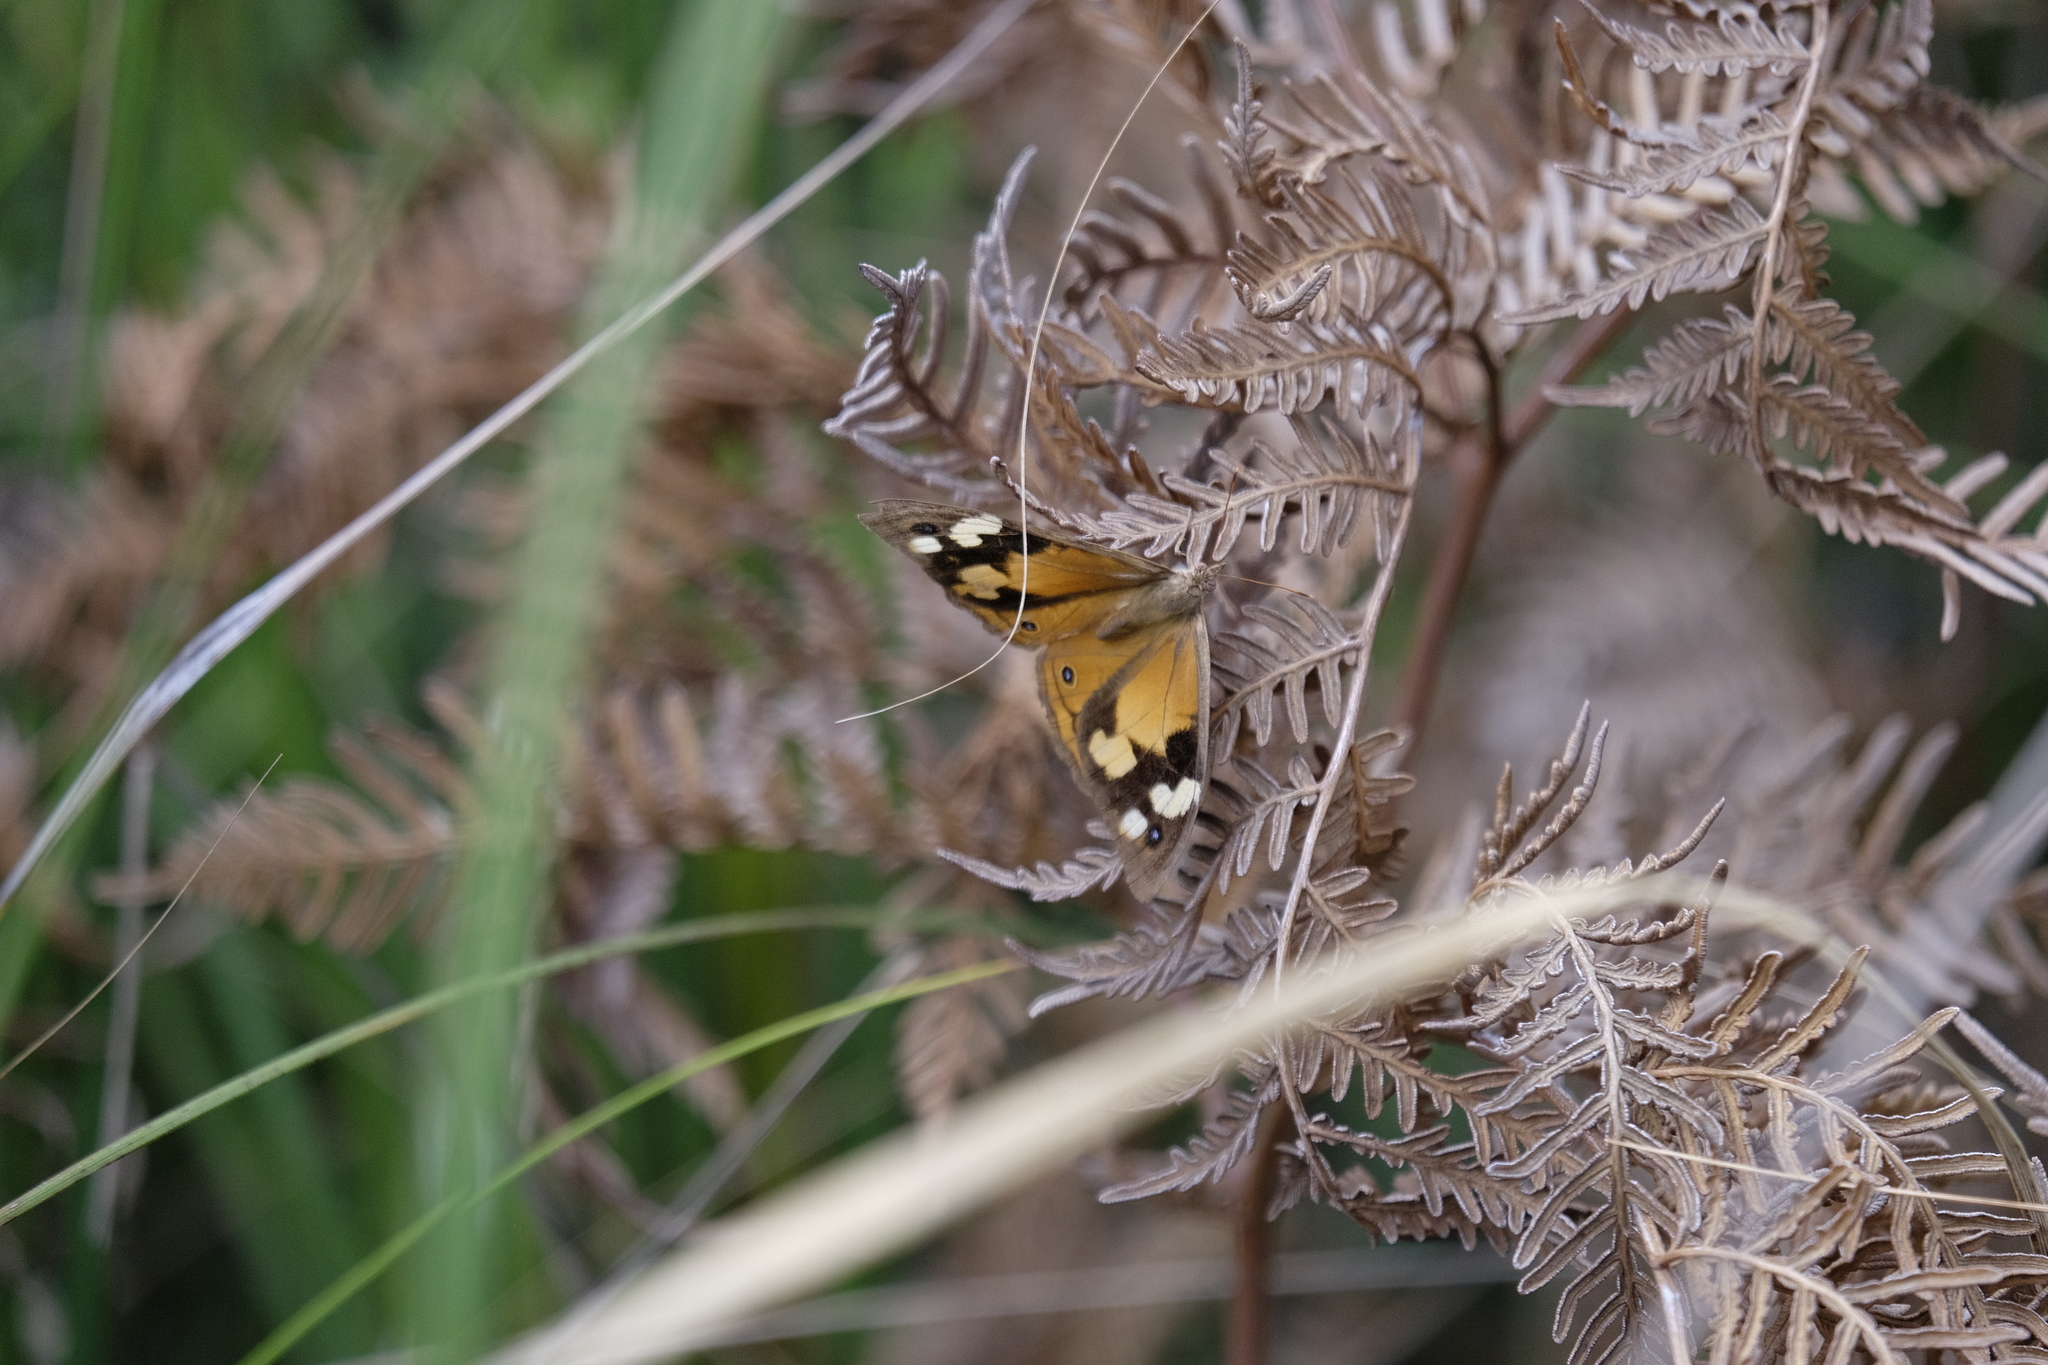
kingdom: Animalia
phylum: Arthropoda
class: Insecta
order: Lepidoptera
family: Nymphalidae
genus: Heteronympha
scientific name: Heteronympha merope
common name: Common brown
